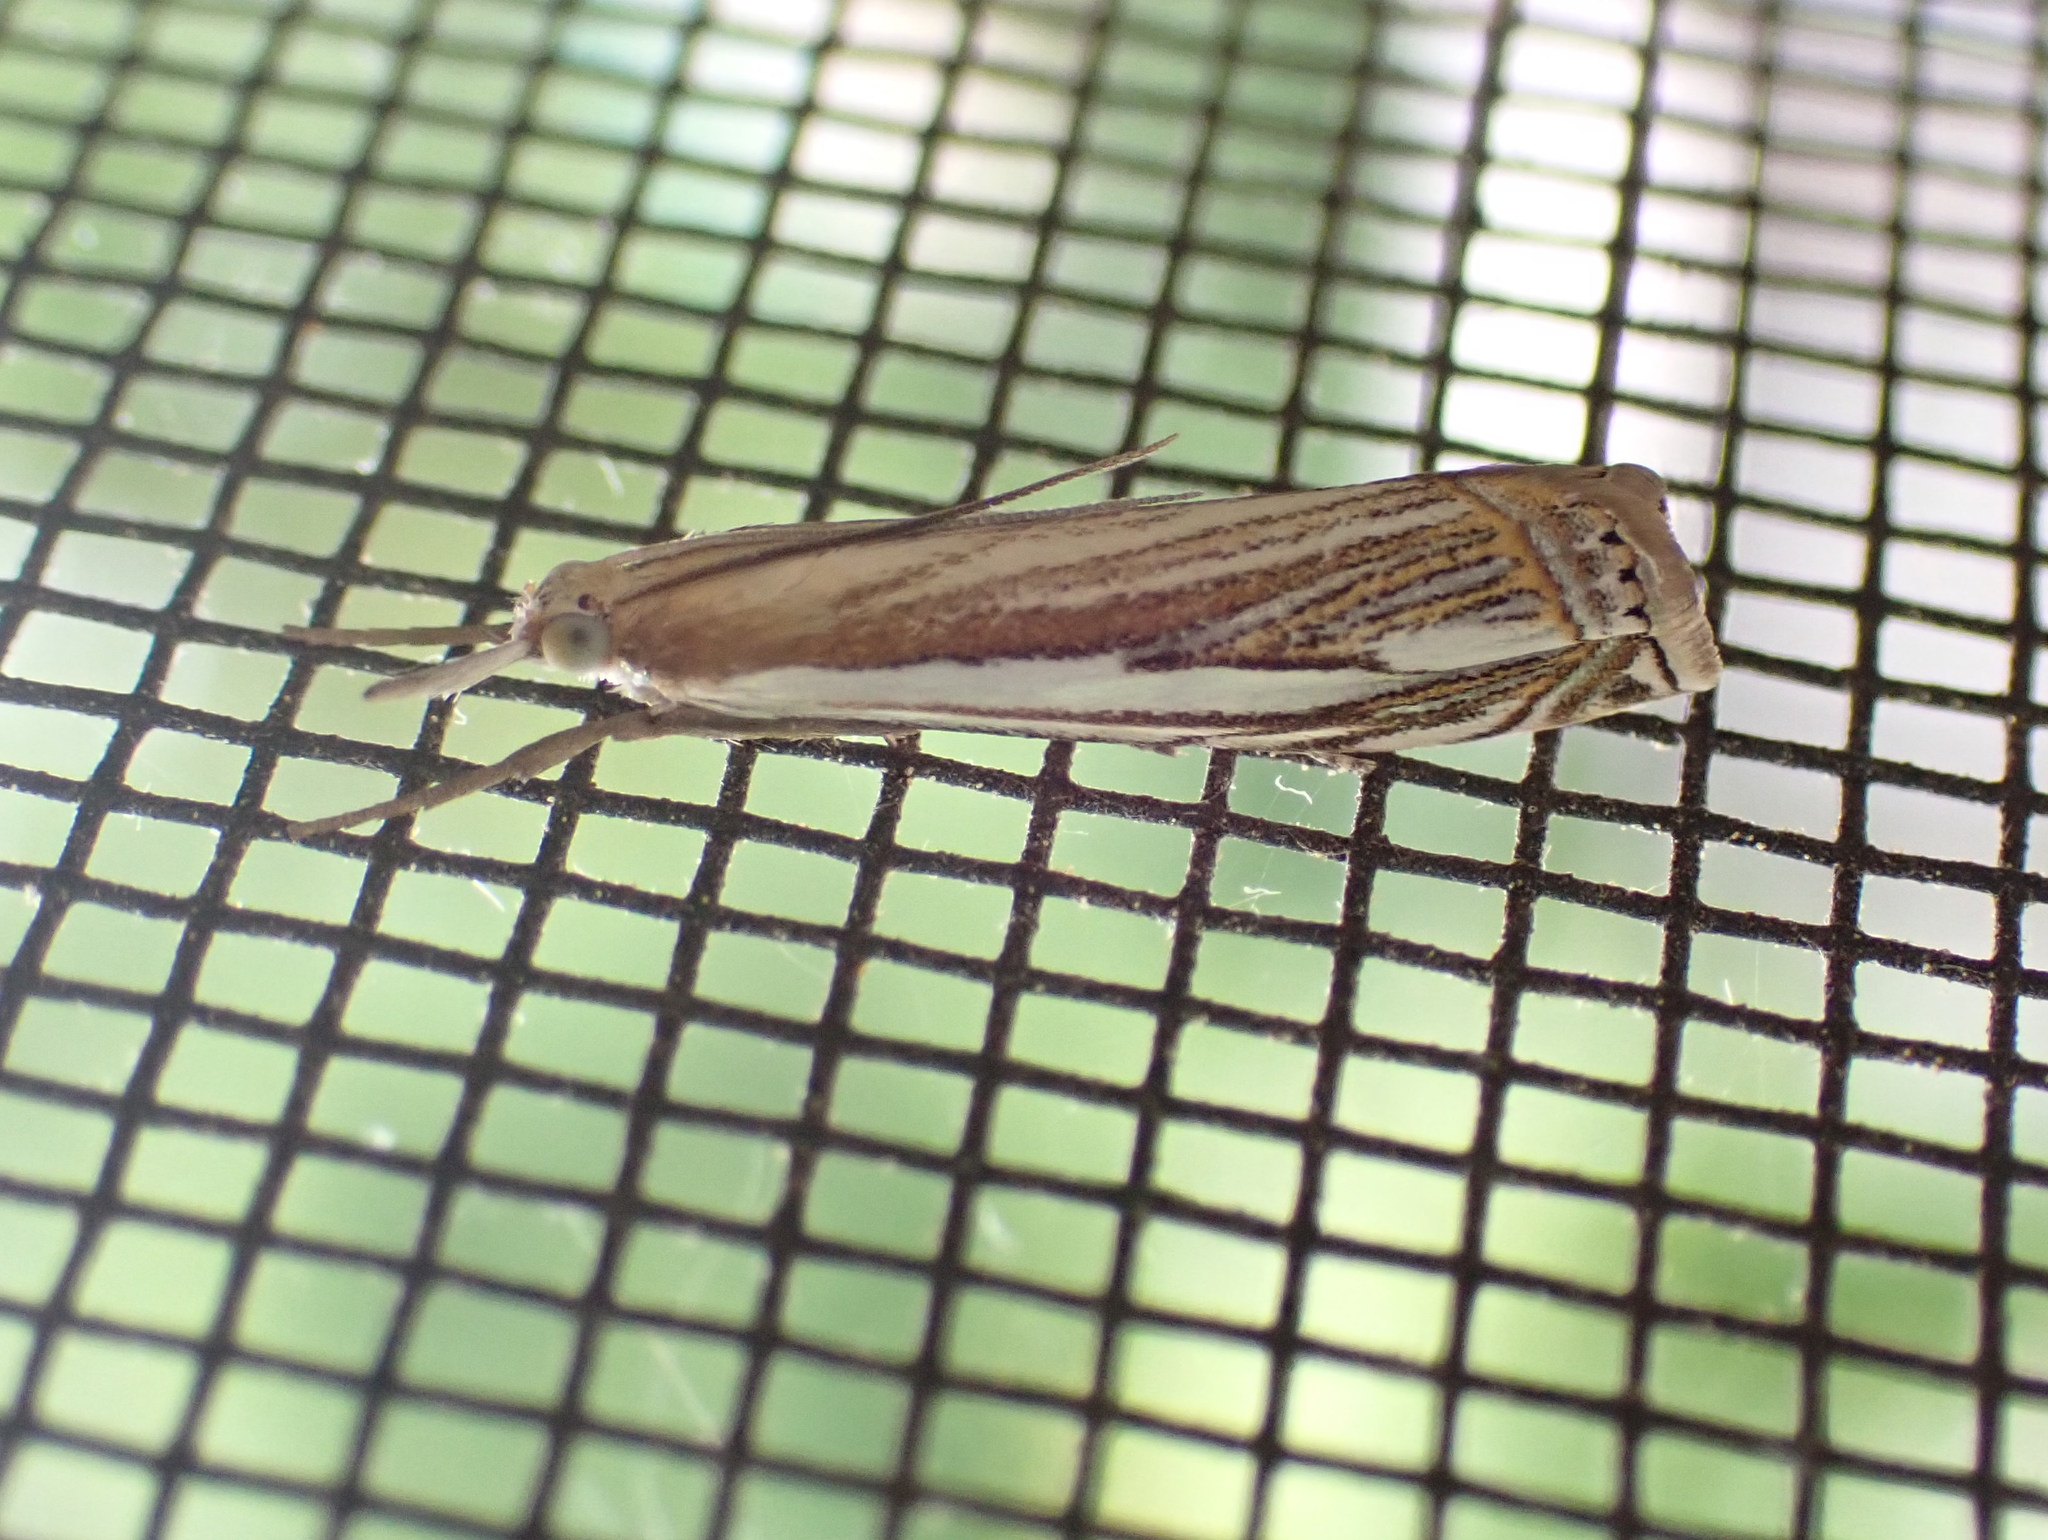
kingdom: Animalia
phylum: Arthropoda
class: Insecta
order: Lepidoptera
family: Crambidae
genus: Crambus
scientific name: Crambus saltuellus
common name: Pasture grass-veneer
